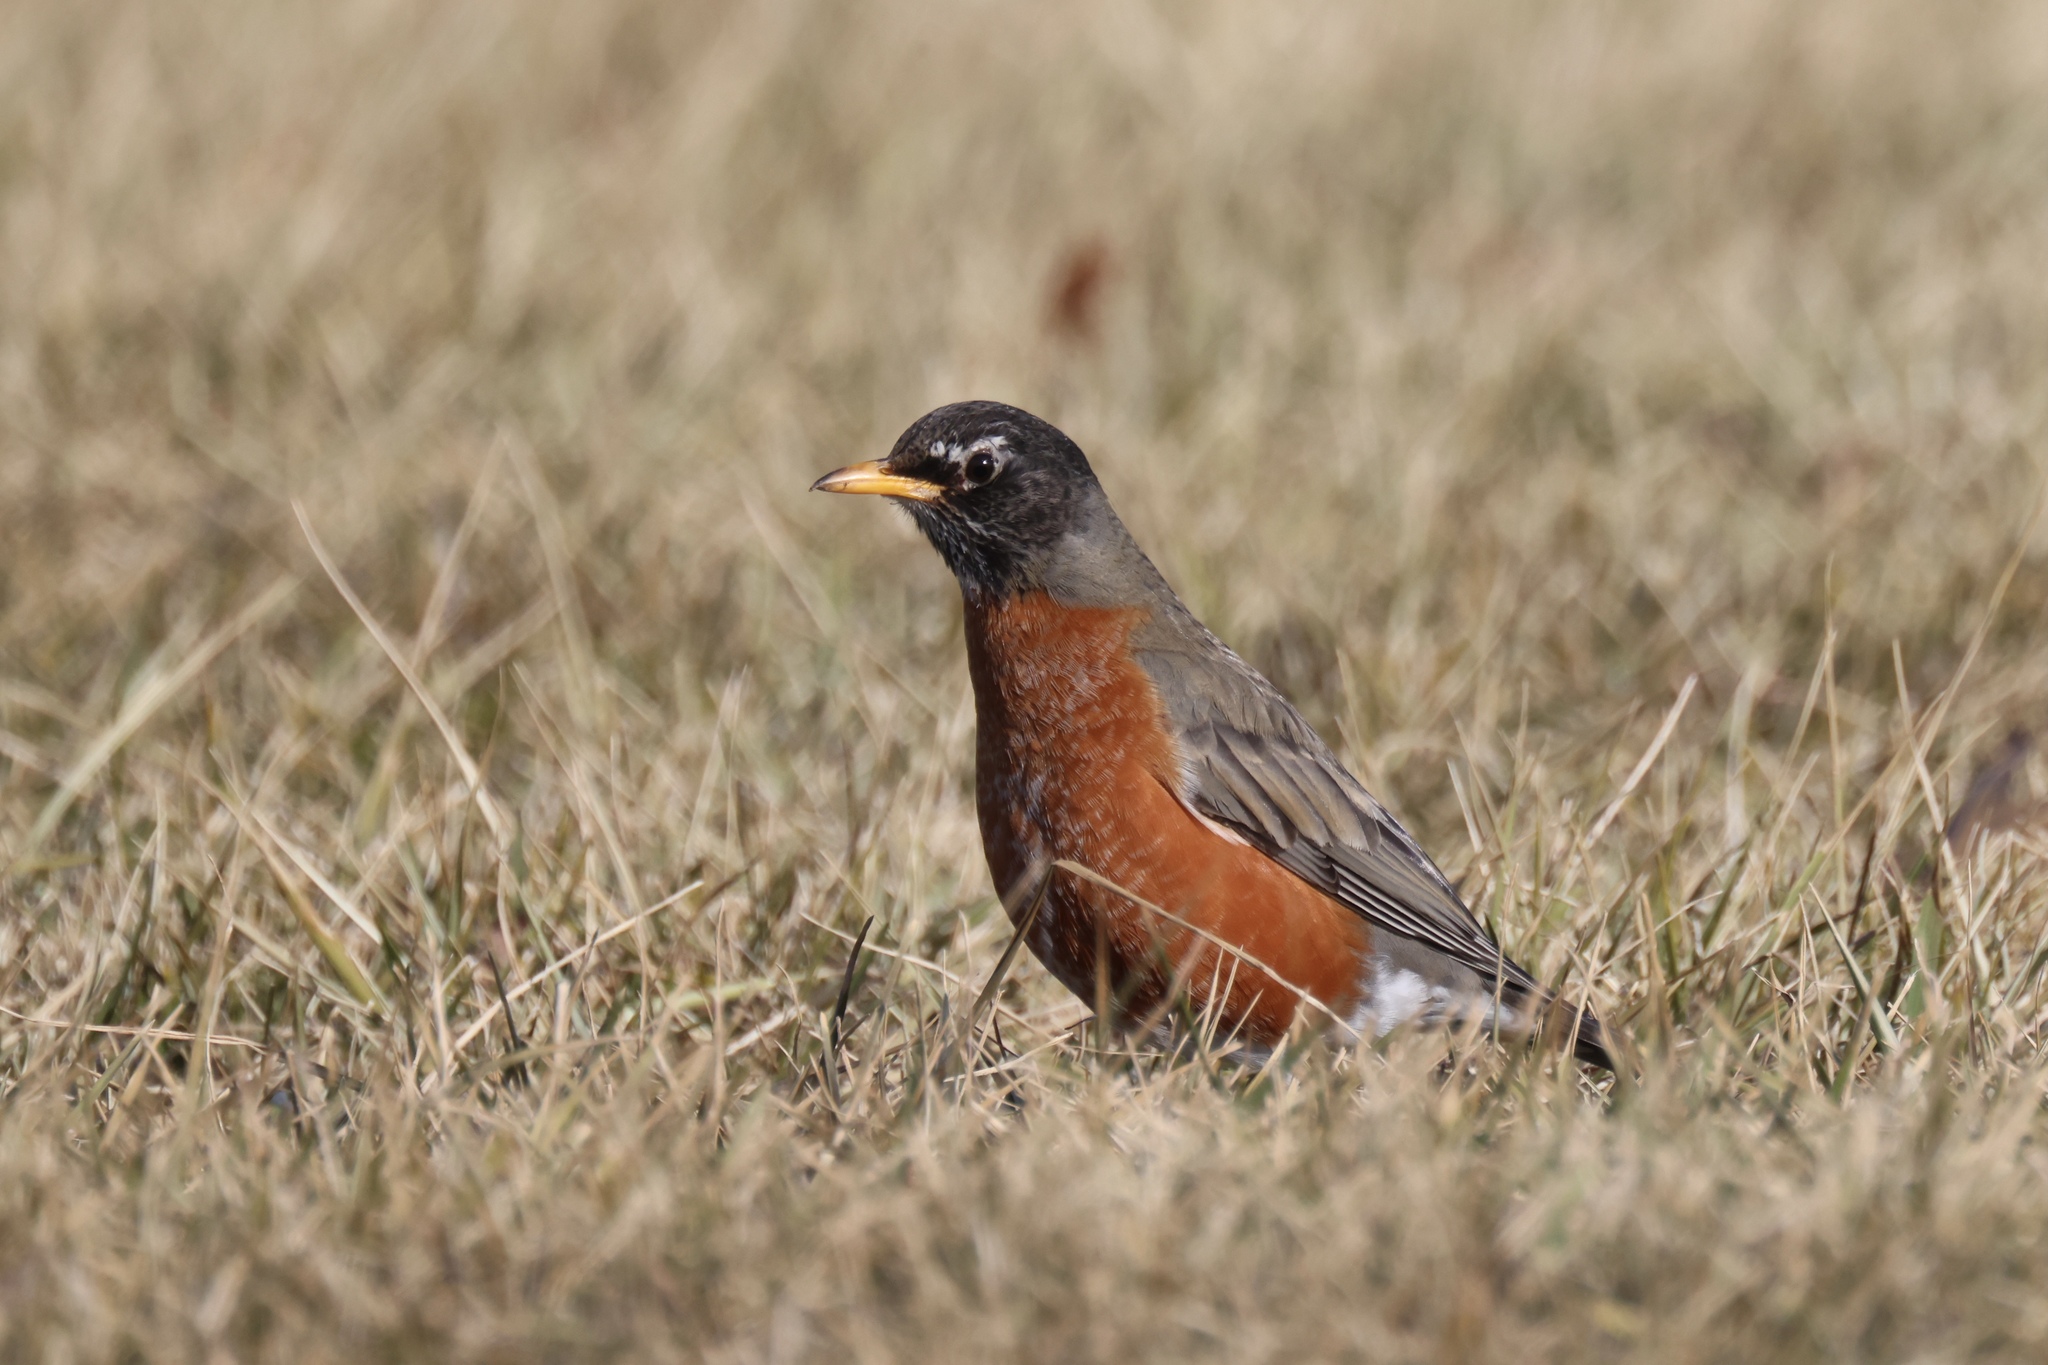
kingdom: Animalia
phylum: Chordata
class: Aves
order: Passeriformes
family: Turdidae
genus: Turdus
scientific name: Turdus migratorius
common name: American robin
